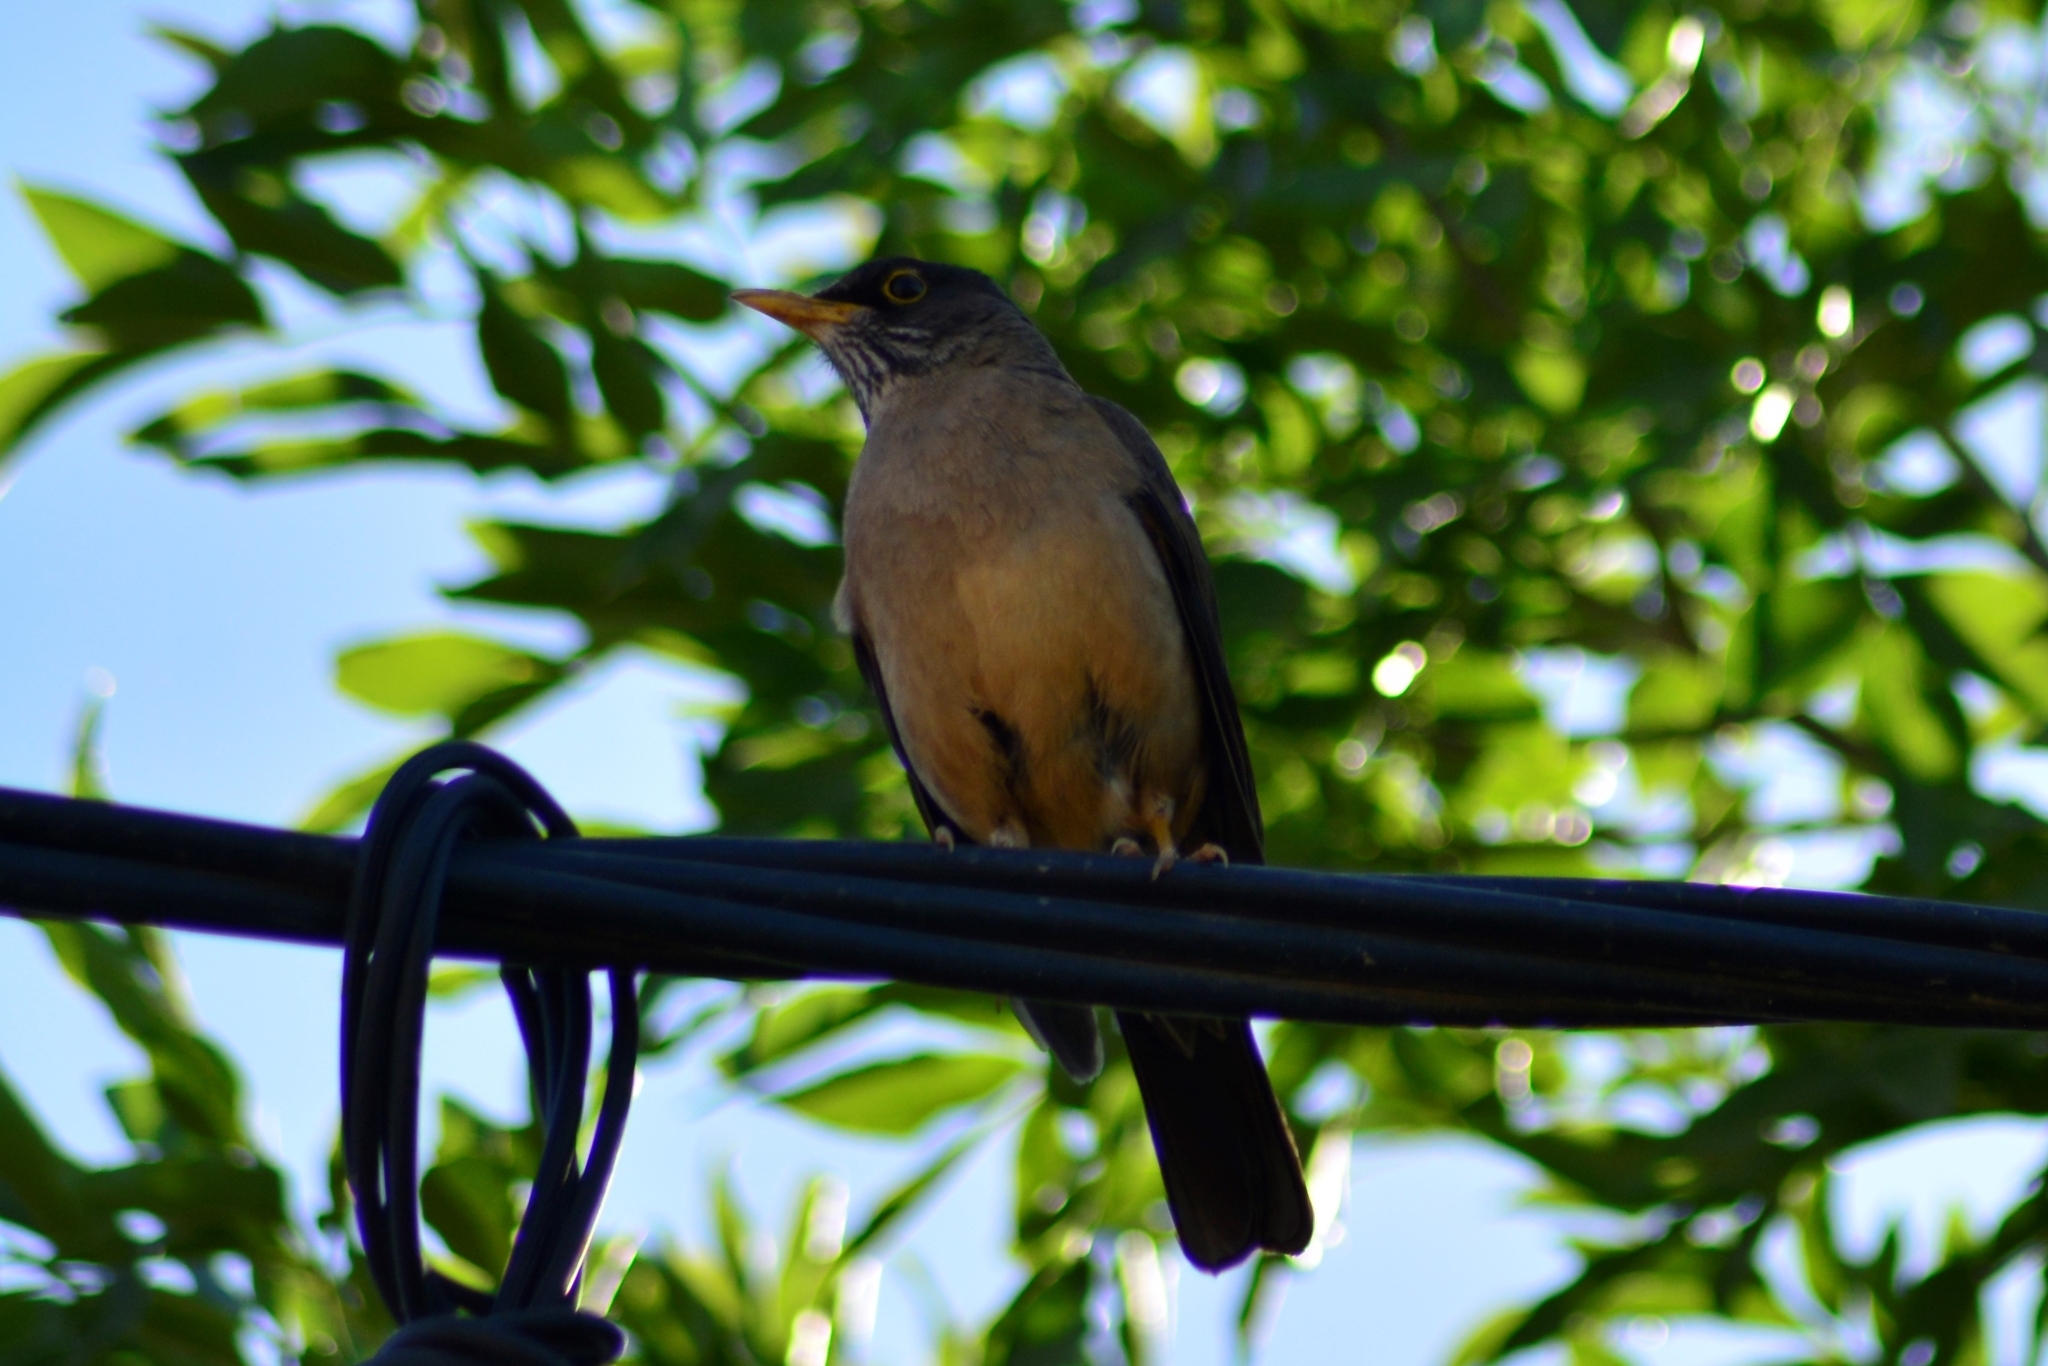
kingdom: Animalia
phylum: Chordata
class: Aves
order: Passeriformes
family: Turdidae
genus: Turdus
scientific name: Turdus falcklandii
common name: Austral thrush
